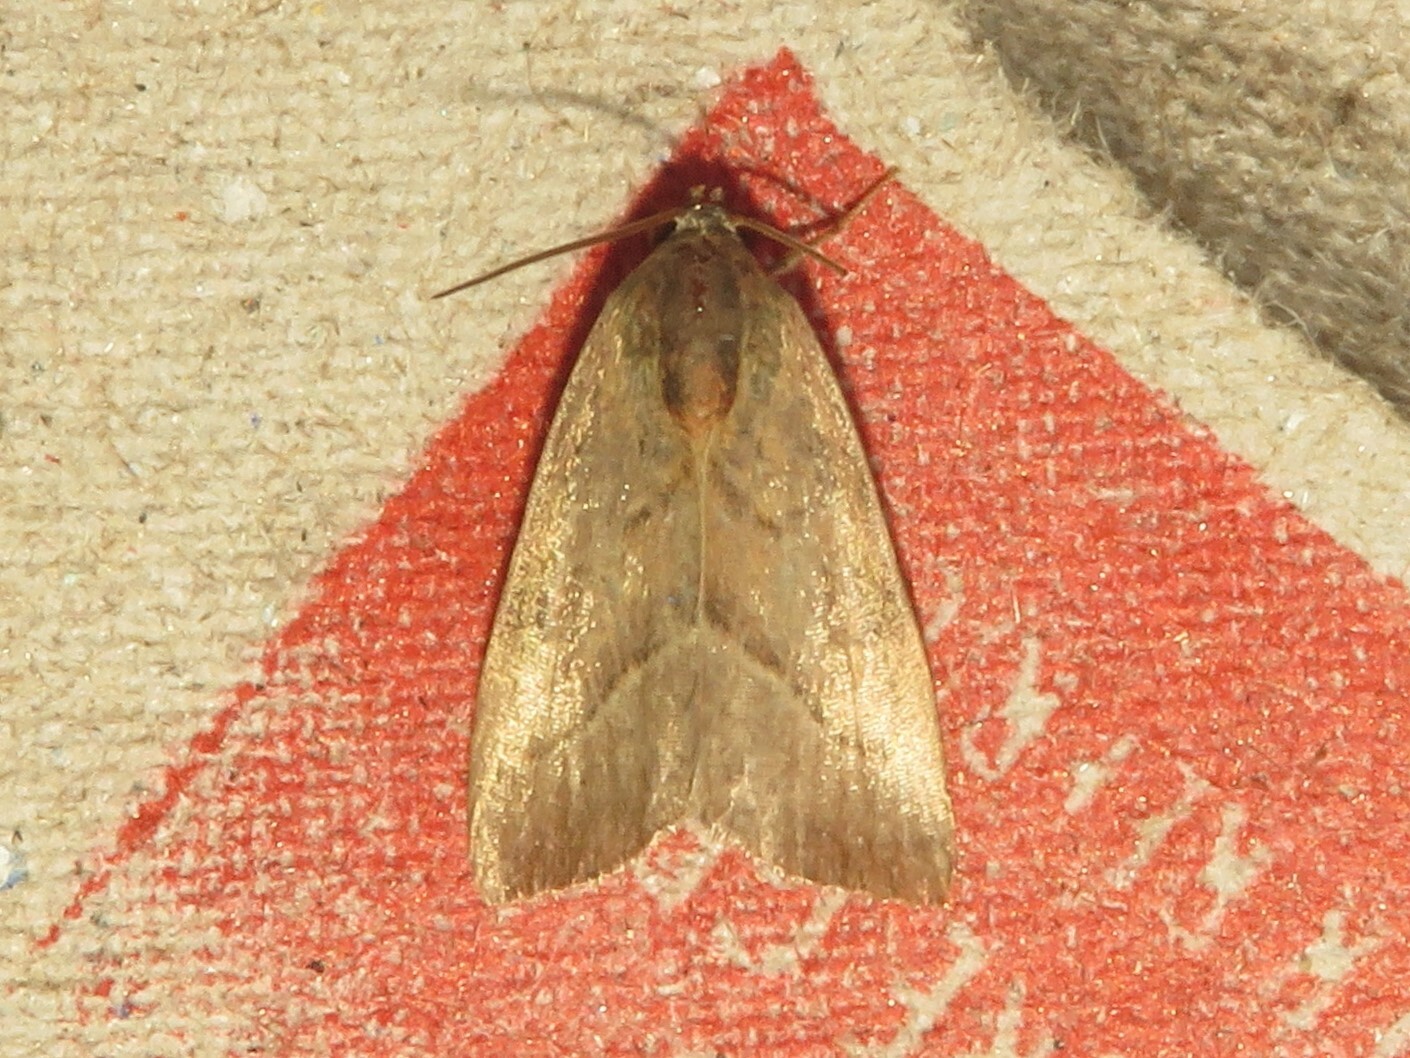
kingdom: Animalia
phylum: Arthropoda
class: Insecta
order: Lepidoptera
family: Noctuidae
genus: Galgula
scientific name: Galgula partita
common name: Wedgeling
